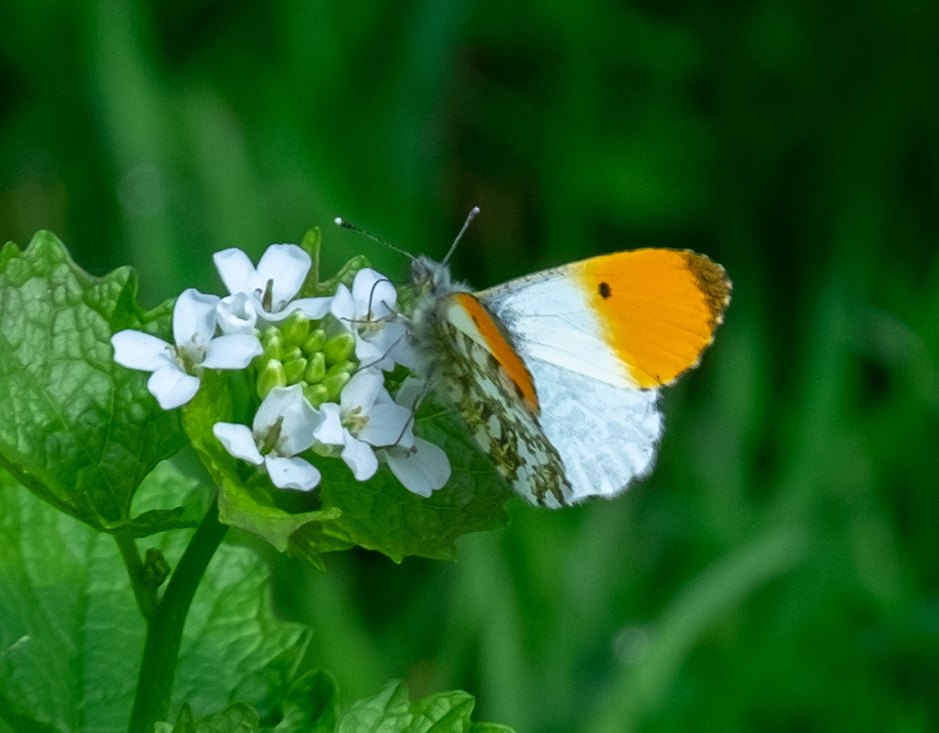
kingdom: Animalia
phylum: Arthropoda
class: Insecta
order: Lepidoptera
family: Pieridae
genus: Anthocharis
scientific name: Anthocharis cardamines
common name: Orange-tip
